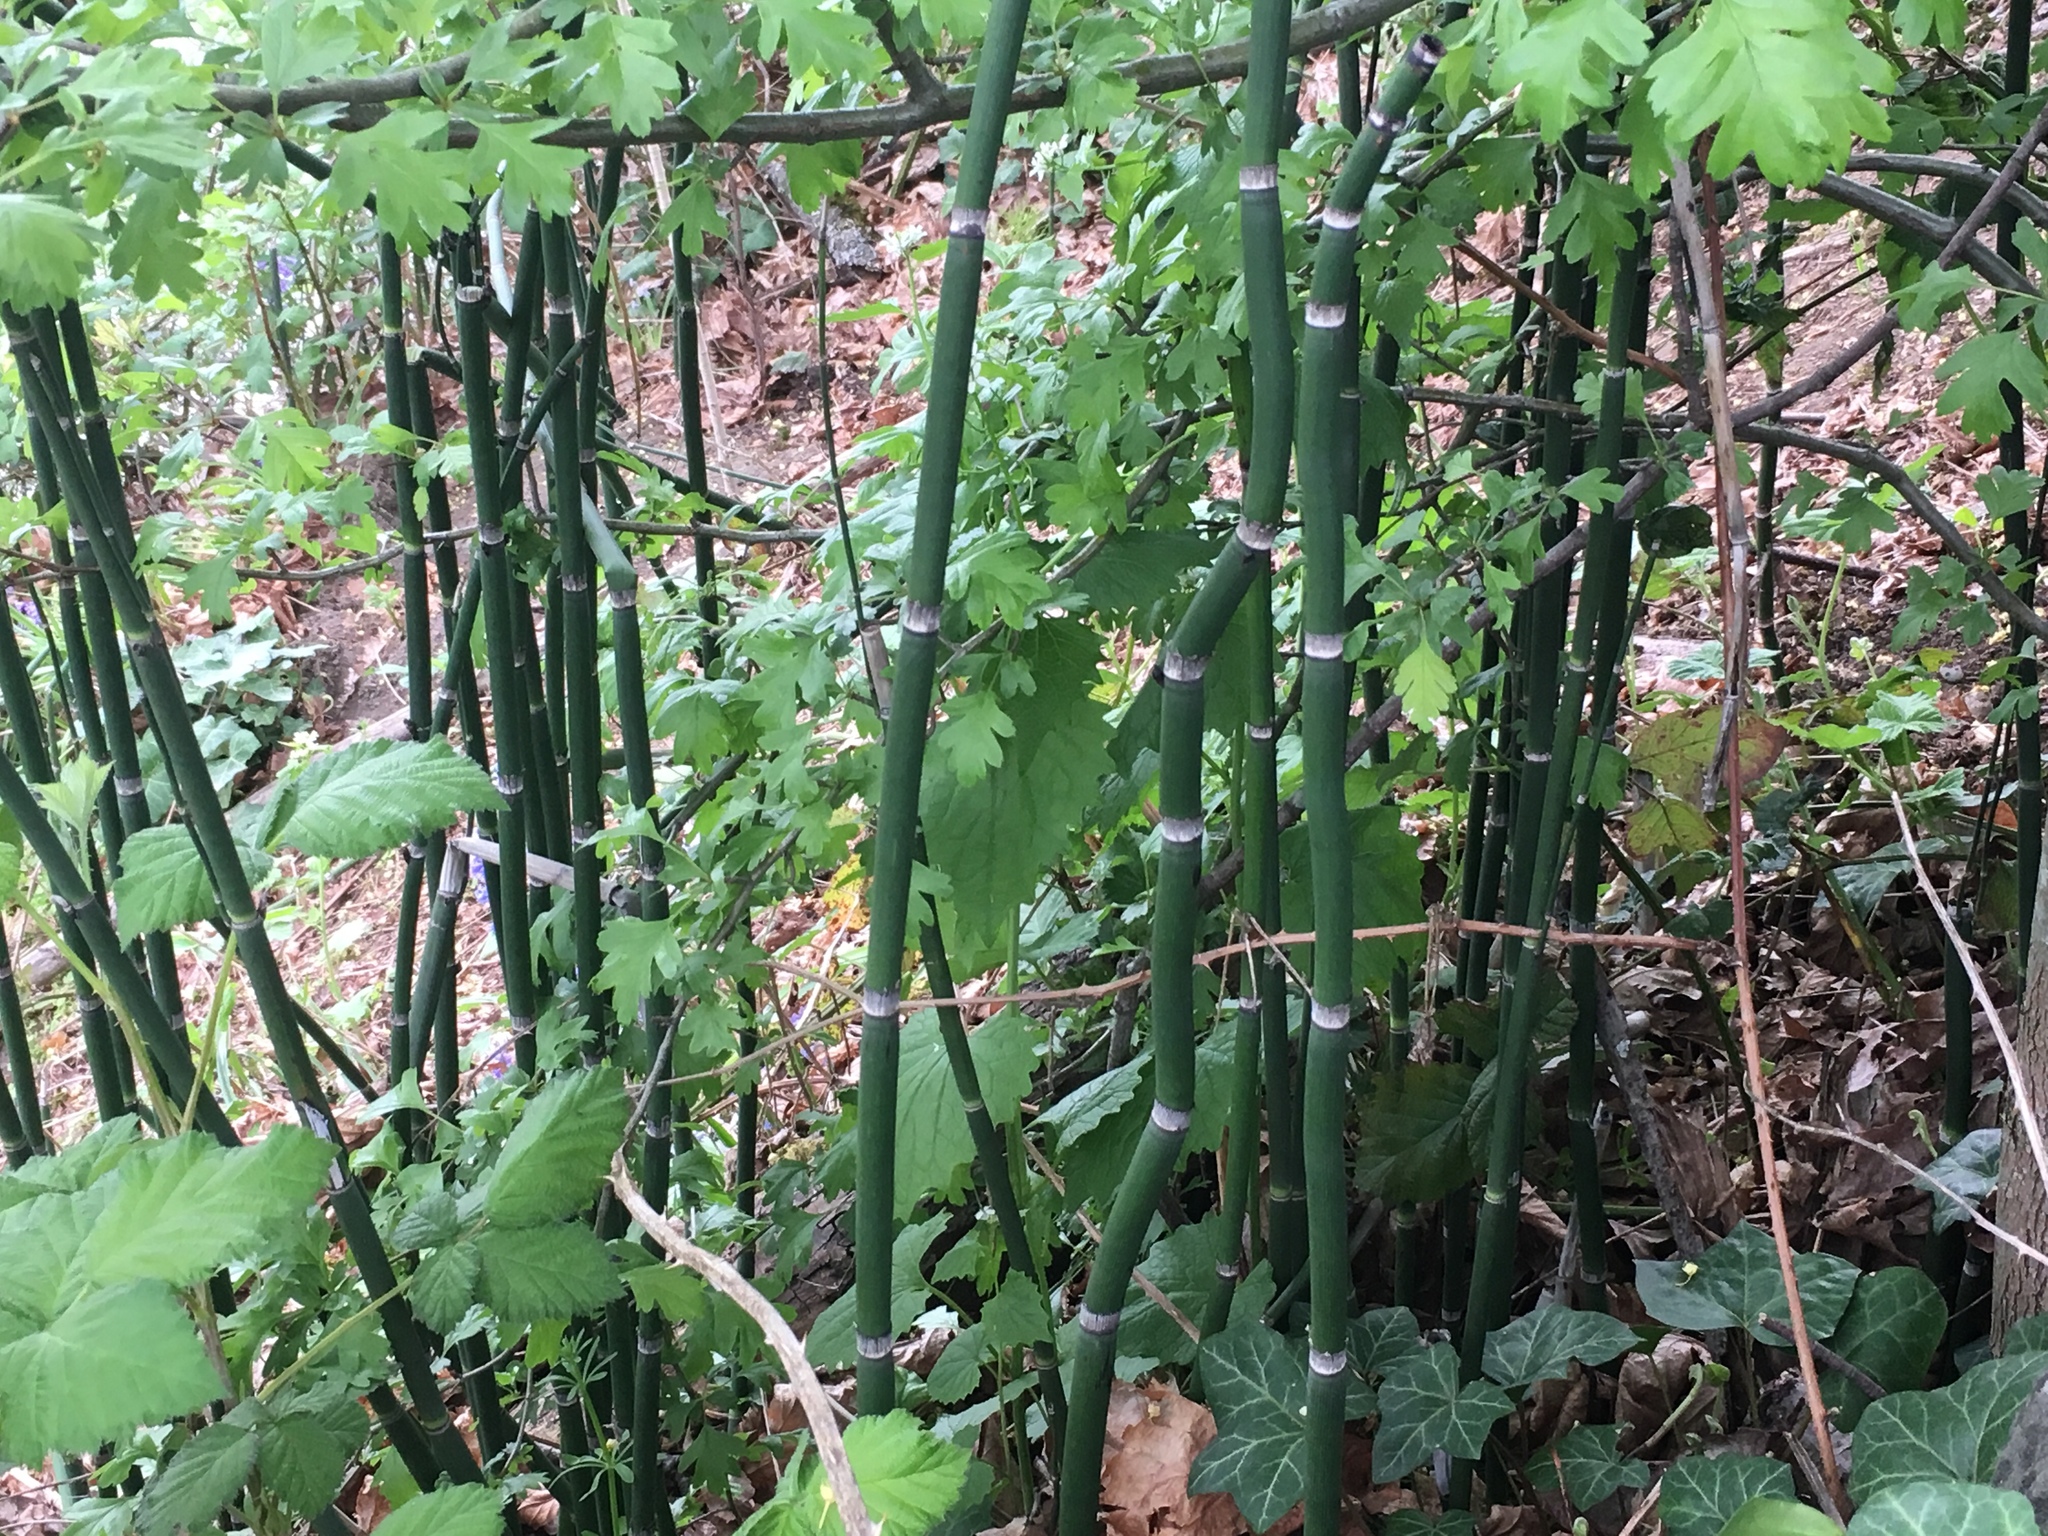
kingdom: Plantae
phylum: Tracheophyta
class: Polypodiopsida
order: Equisetales
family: Equisetaceae
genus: Equisetum
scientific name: Equisetum hyemale
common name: Rough horsetail
